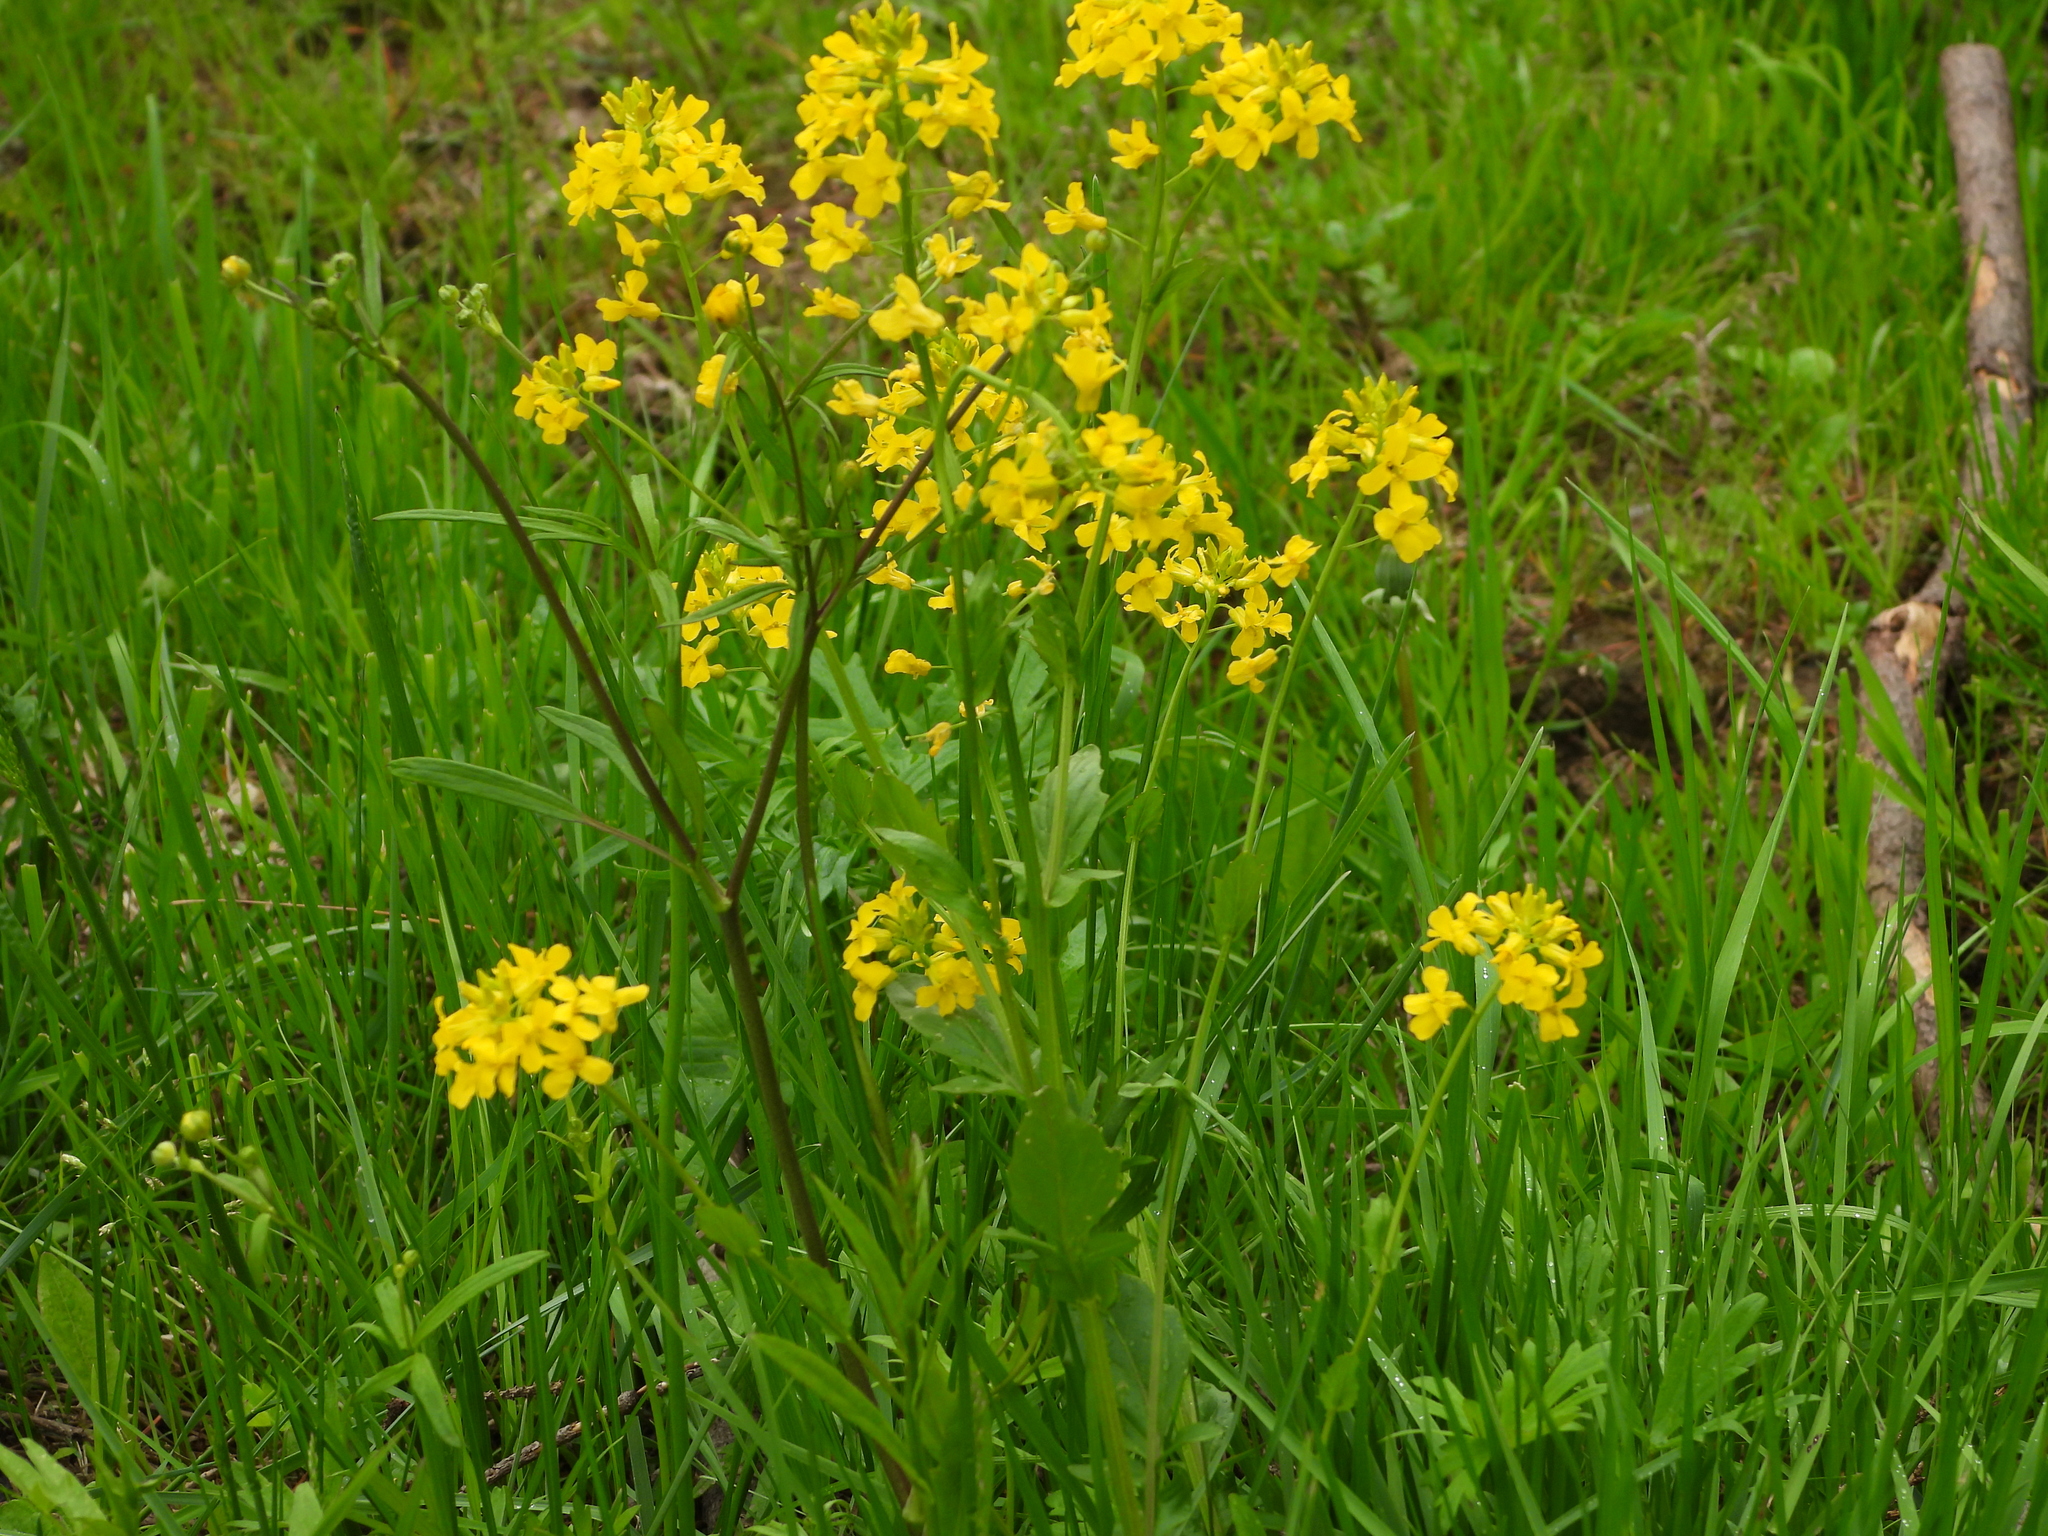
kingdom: Plantae
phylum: Tracheophyta
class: Magnoliopsida
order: Brassicales
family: Brassicaceae
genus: Barbarea
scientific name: Barbarea vulgaris
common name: Cressy-greens
